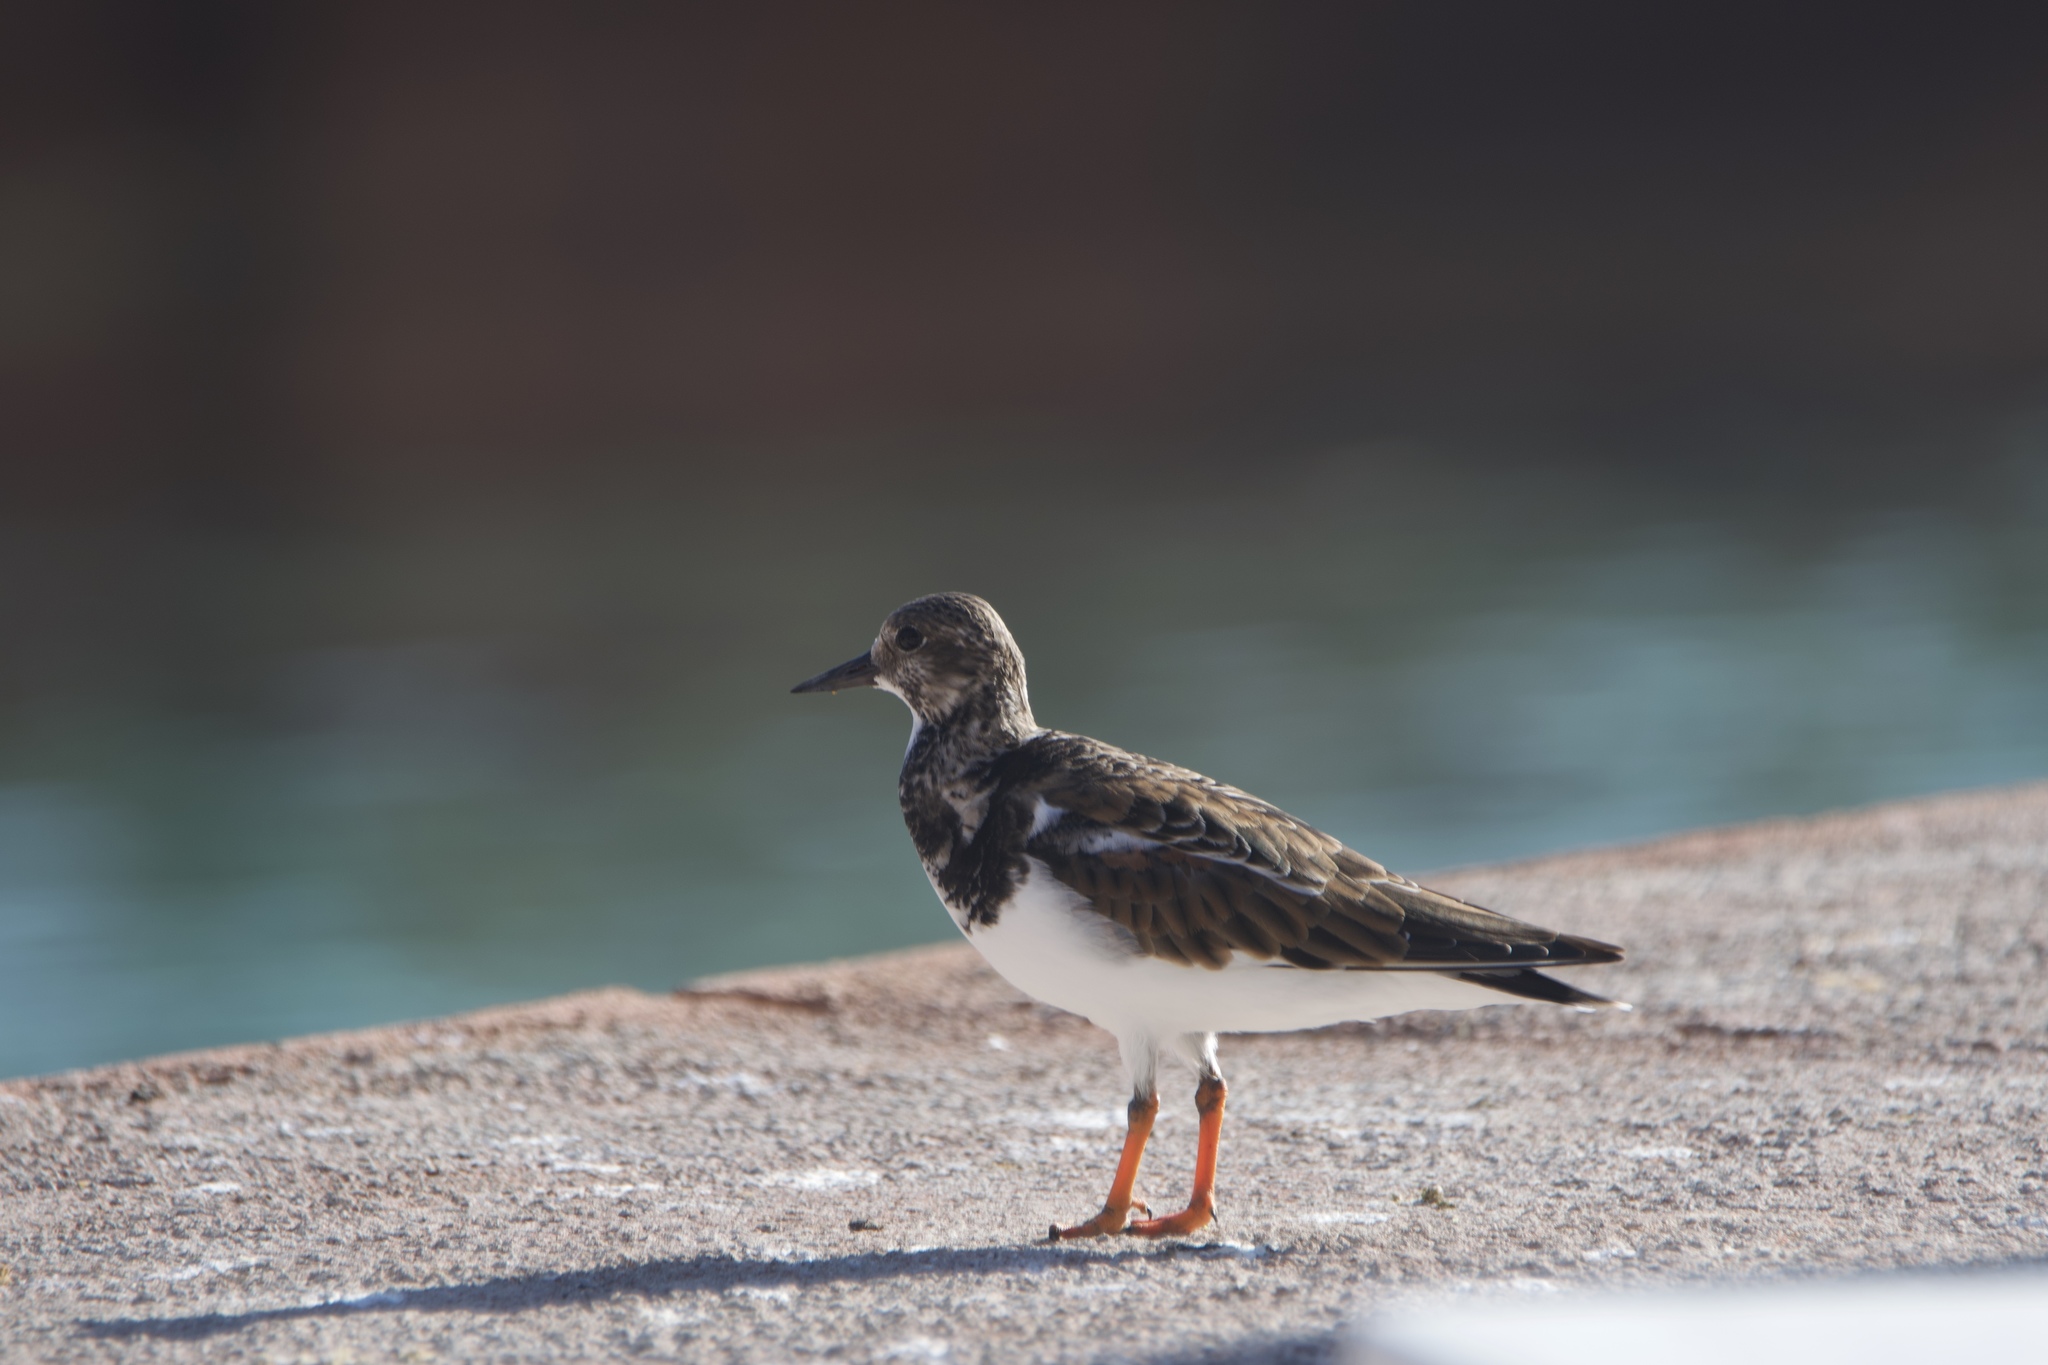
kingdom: Animalia
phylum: Chordata
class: Aves
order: Charadriiformes
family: Scolopacidae
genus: Arenaria
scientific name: Arenaria interpres
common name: Ruddy turnstone
